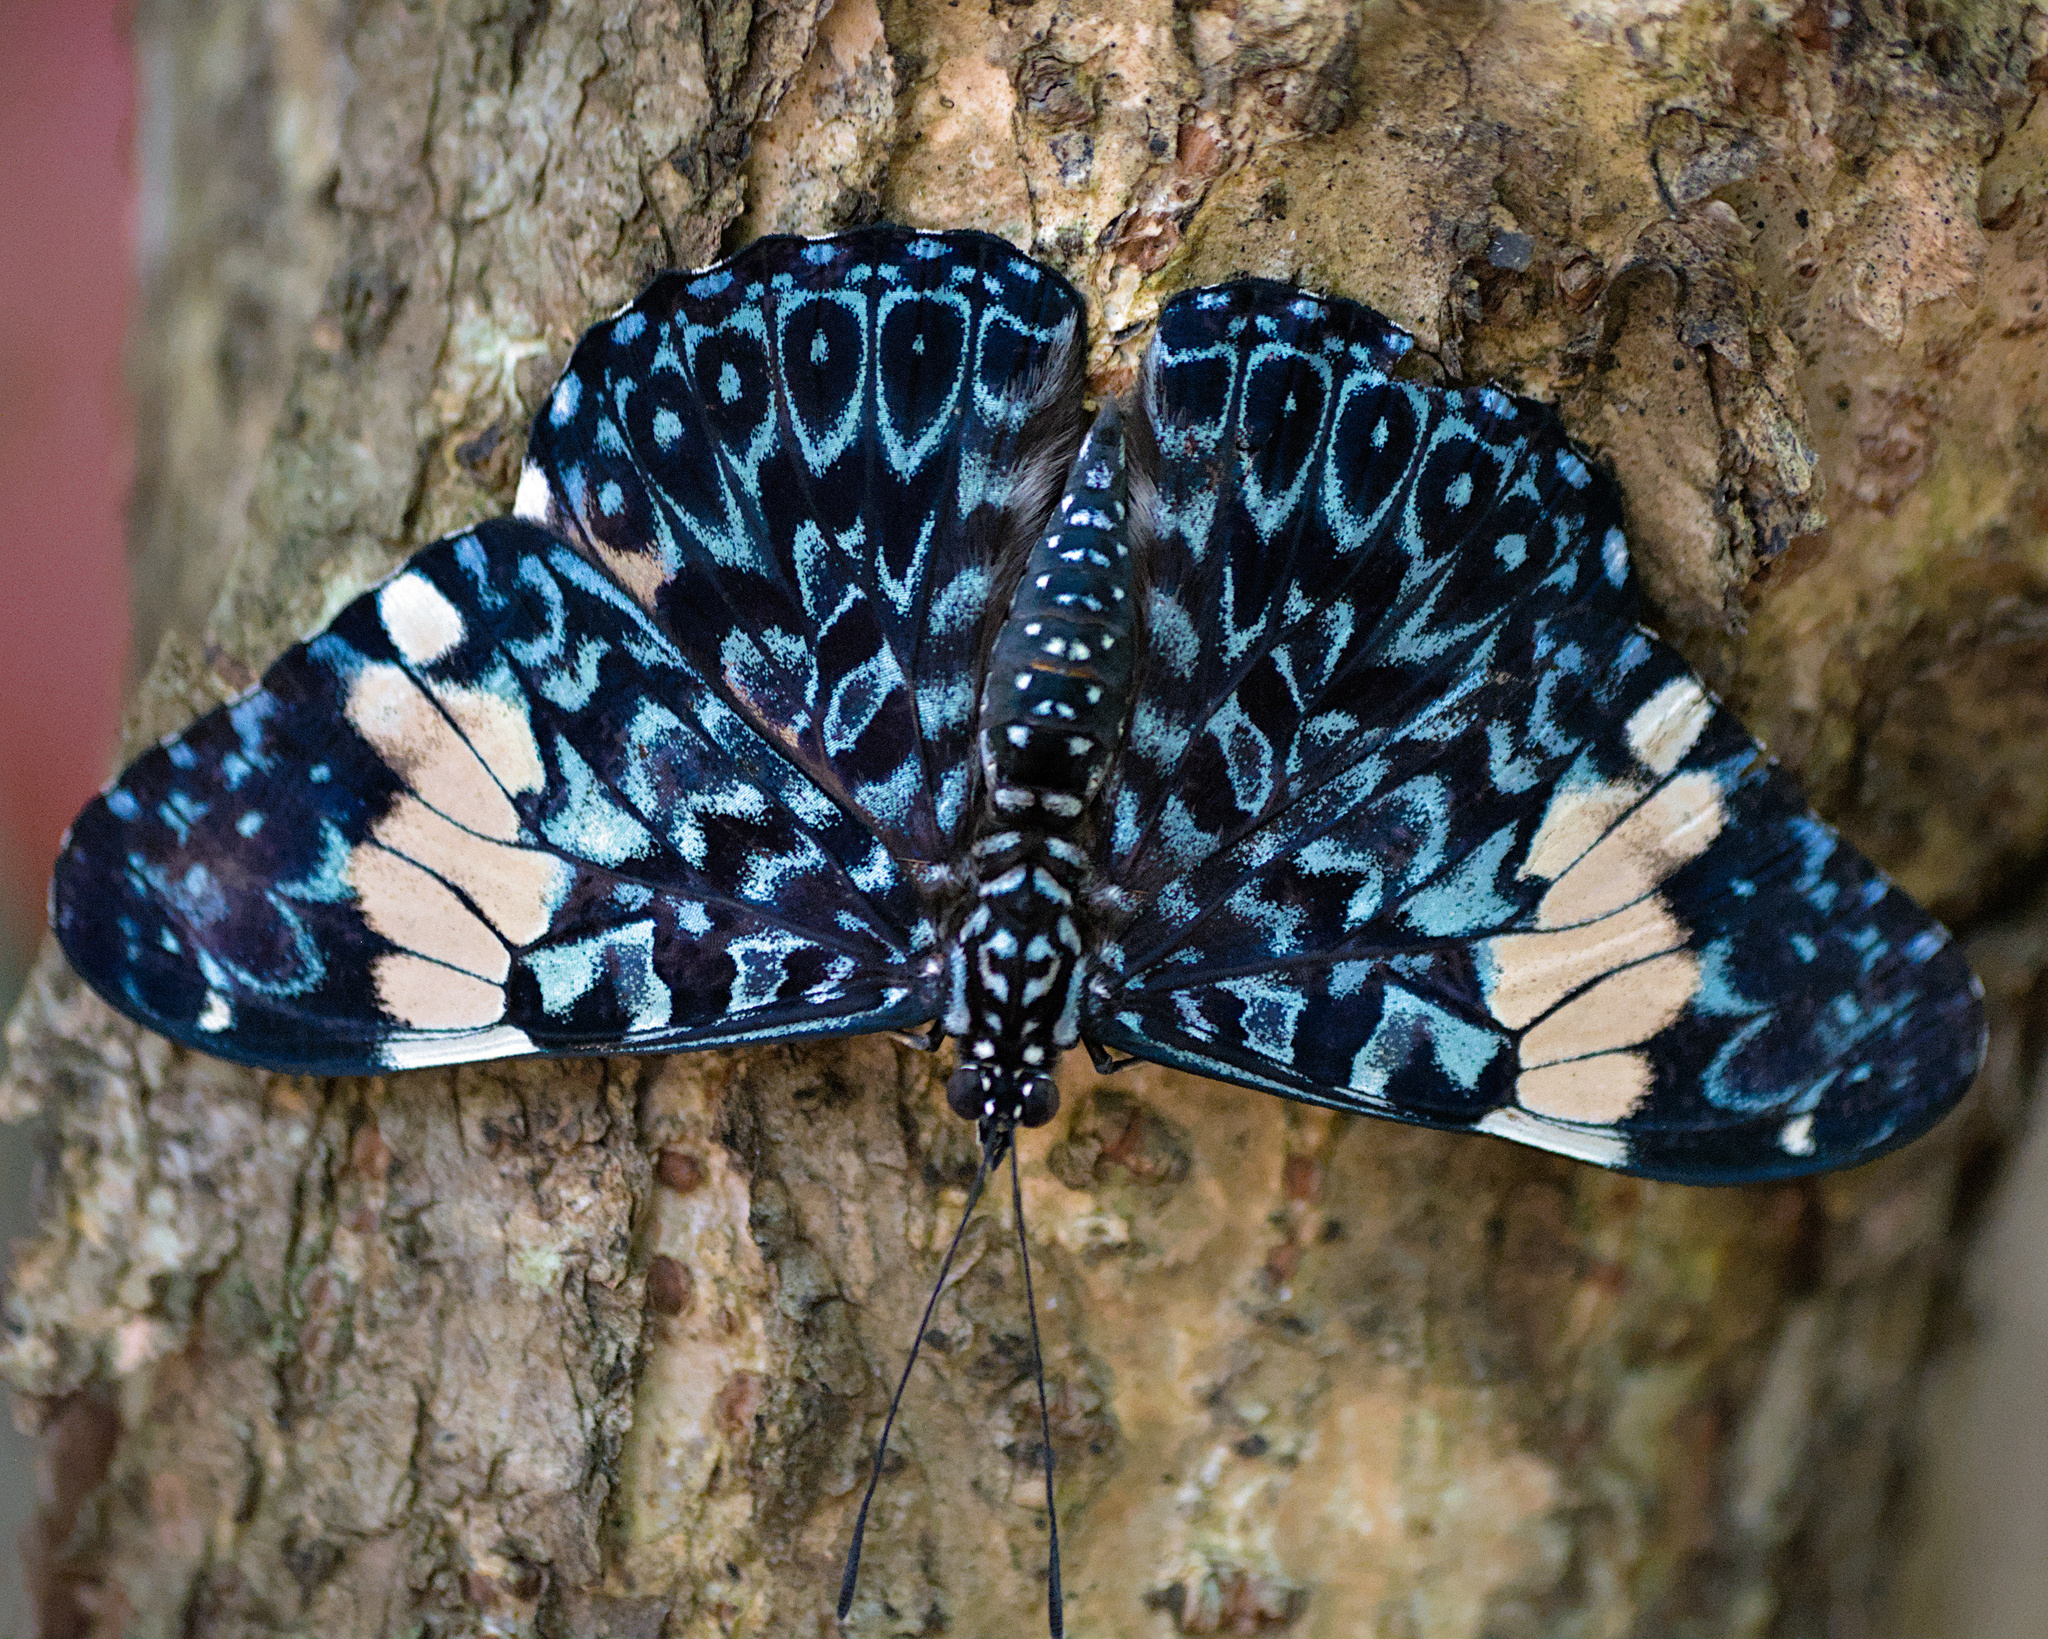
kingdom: Animalia
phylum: Arthropoda
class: Insecta
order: Lepidoptera
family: Nymphalidae
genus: Hamadryas
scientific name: Hamadryas amphinome
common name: Red cracker
